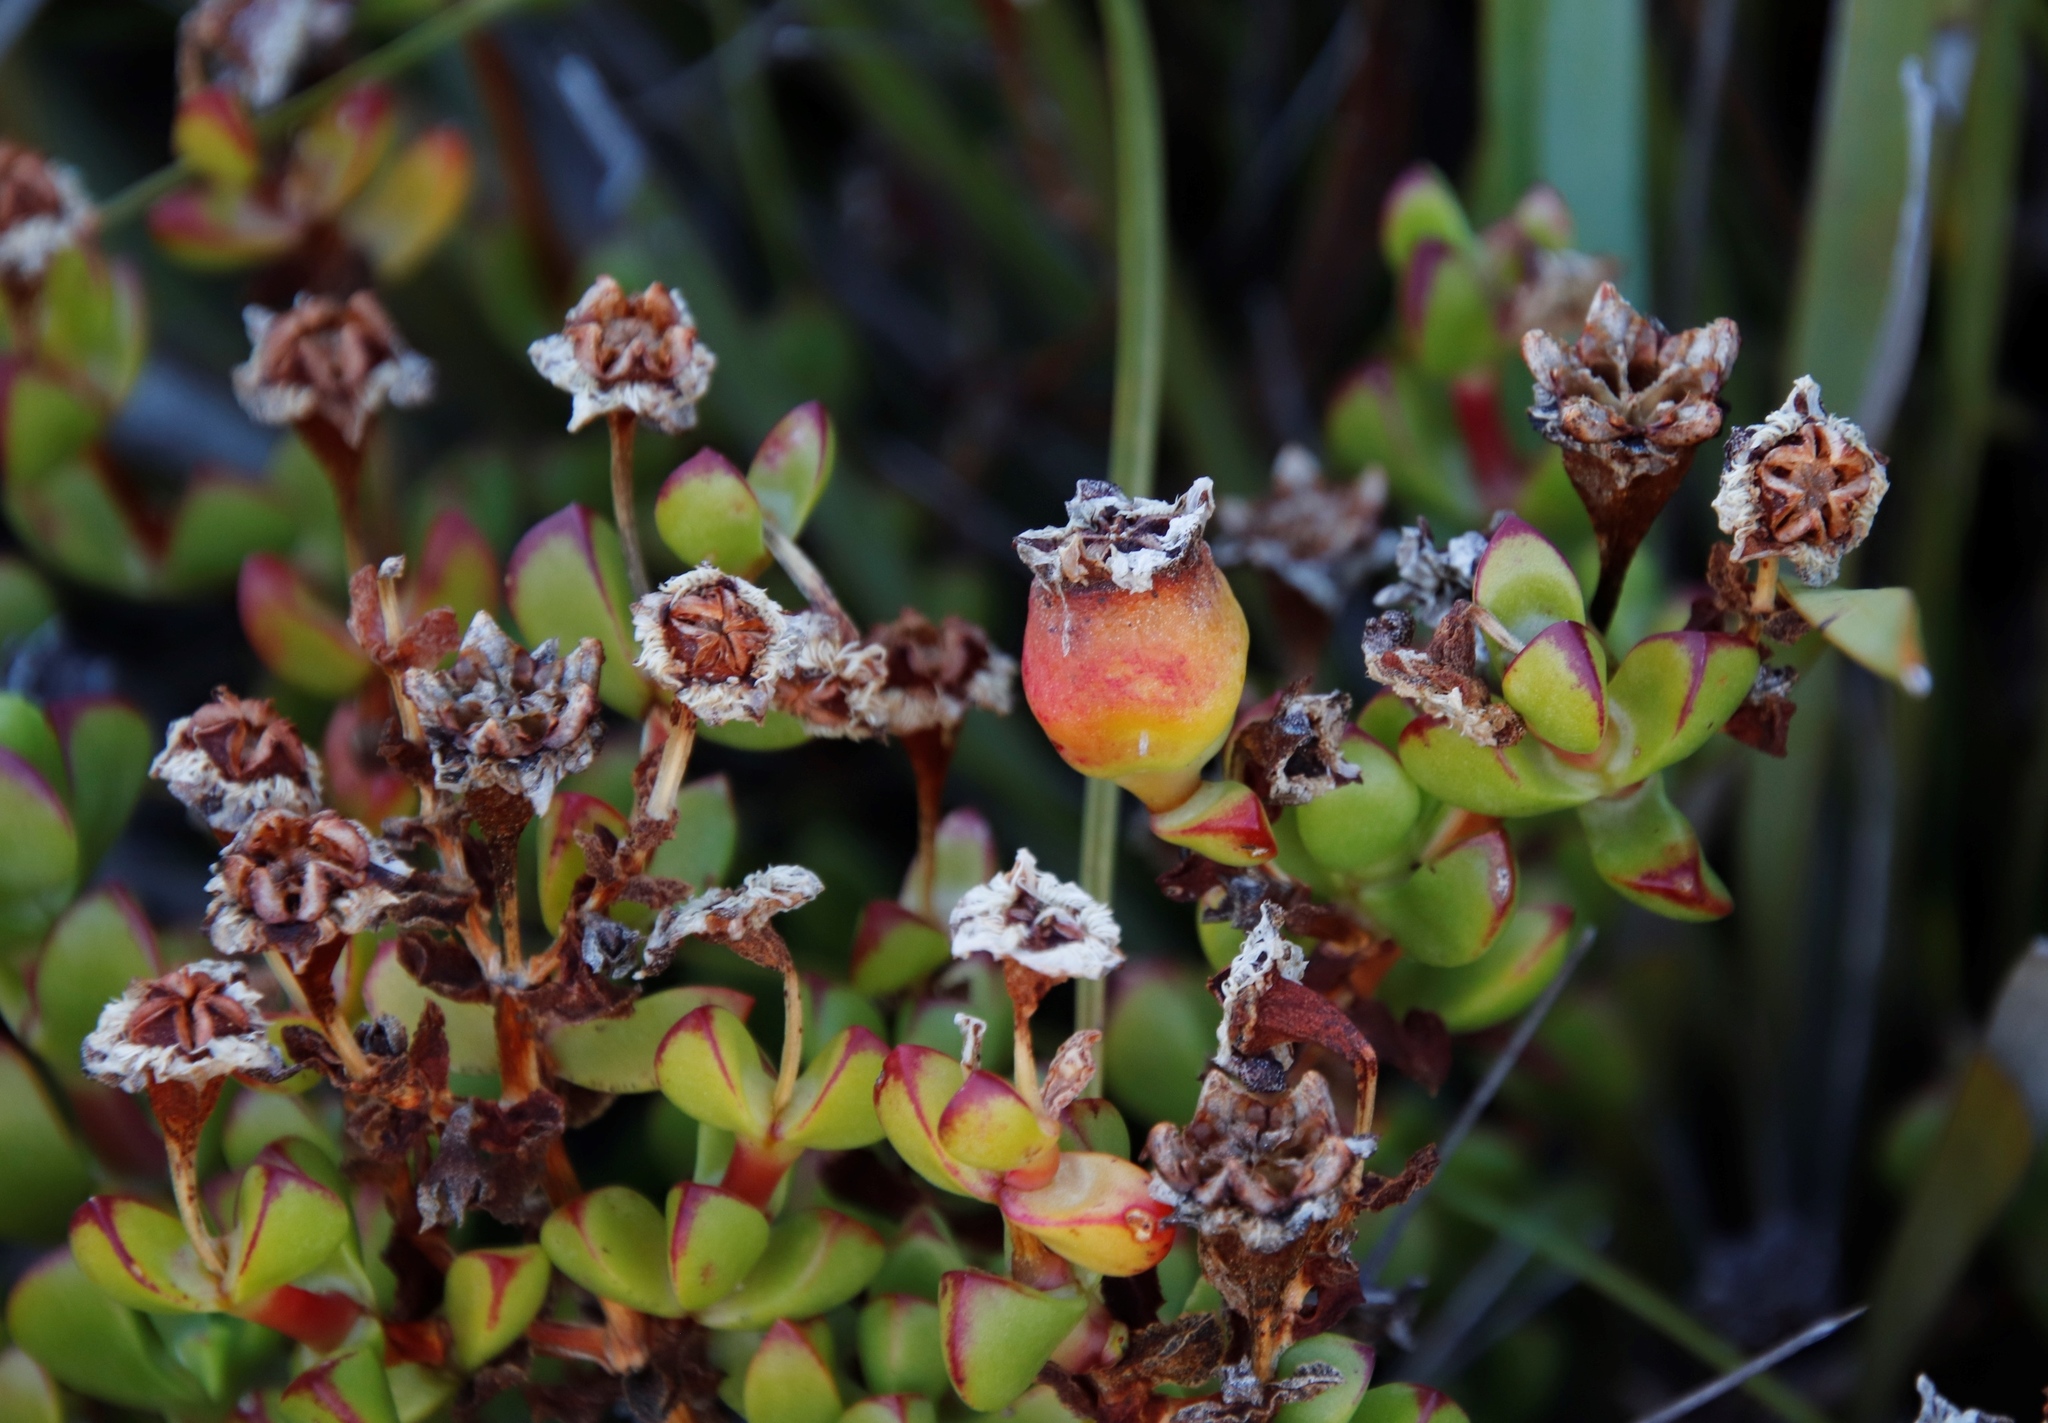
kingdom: Plantae
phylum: Tracheophyta
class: Magnoliopsida
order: Caryophyllales
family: Aizoaceae
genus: Erepsia
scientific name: Erepsia inclaudens
